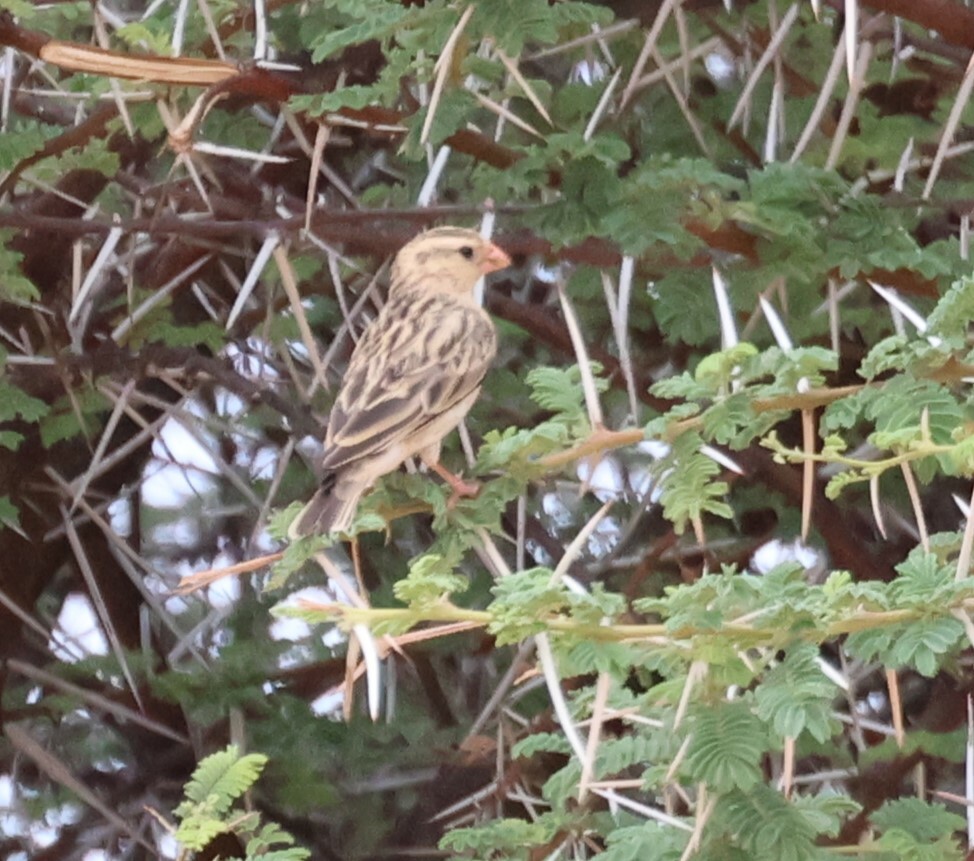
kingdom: Animalia
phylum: Chordata
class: Aves
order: Passeriformes
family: Viduidae
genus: Vidua
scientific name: Vidua regia
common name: Shaft-tailed whydah
